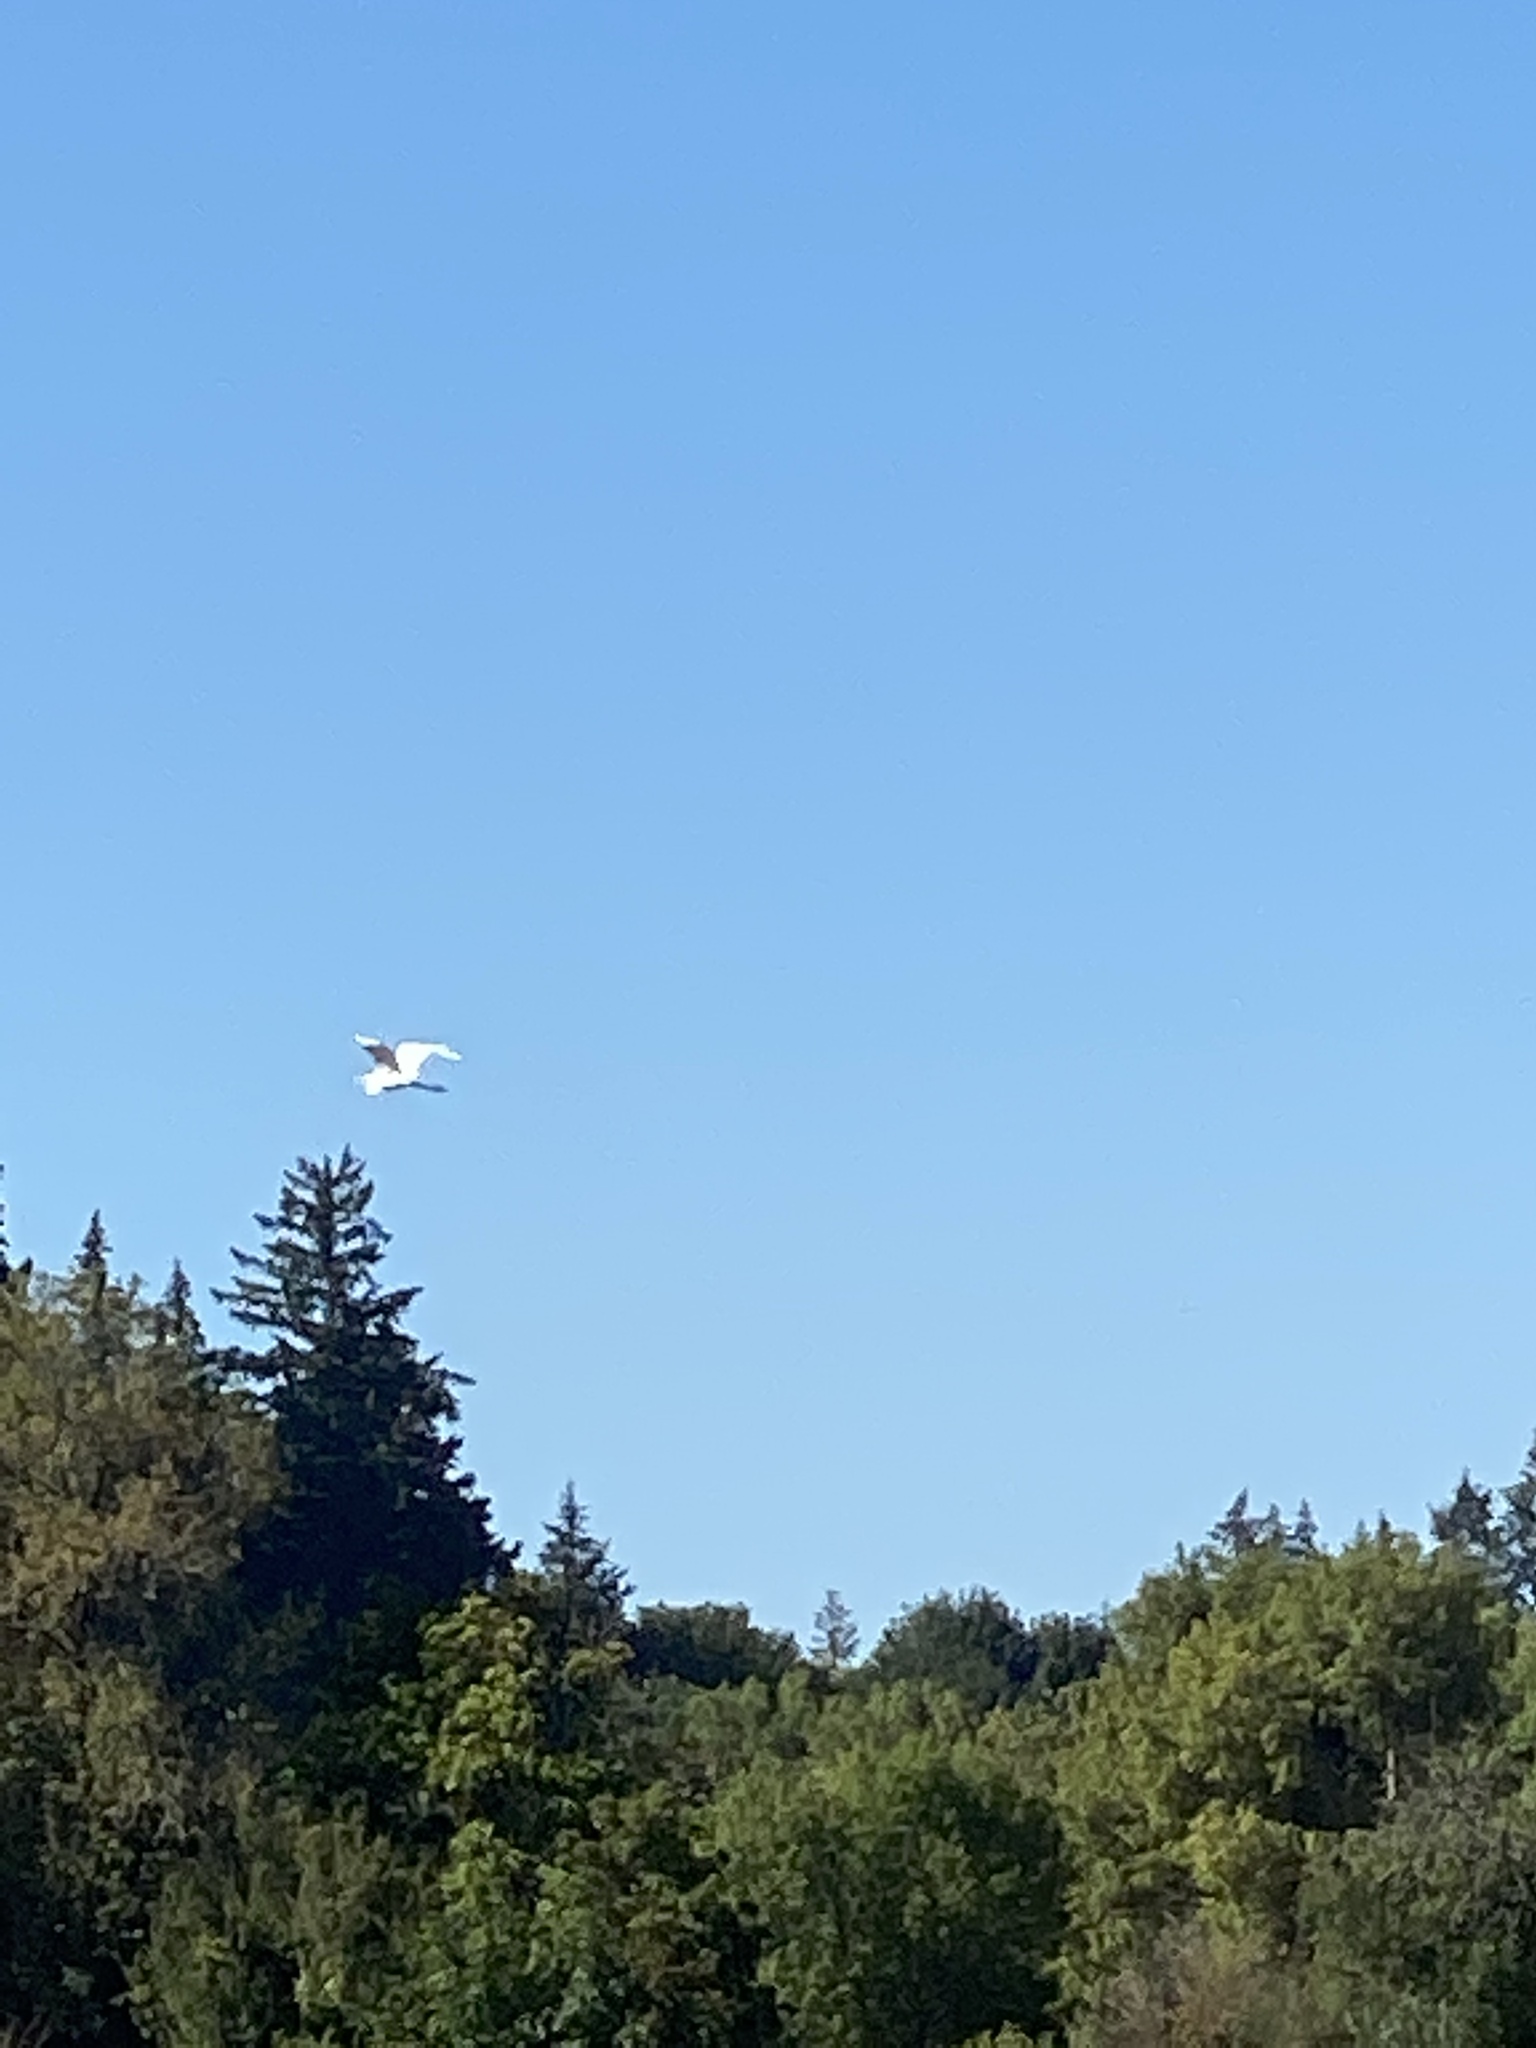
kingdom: Animalia
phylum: Chordata
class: Aves
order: Pelecaniformes
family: Ardeidae
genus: Ardea
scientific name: Ardea alba
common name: Great egret
